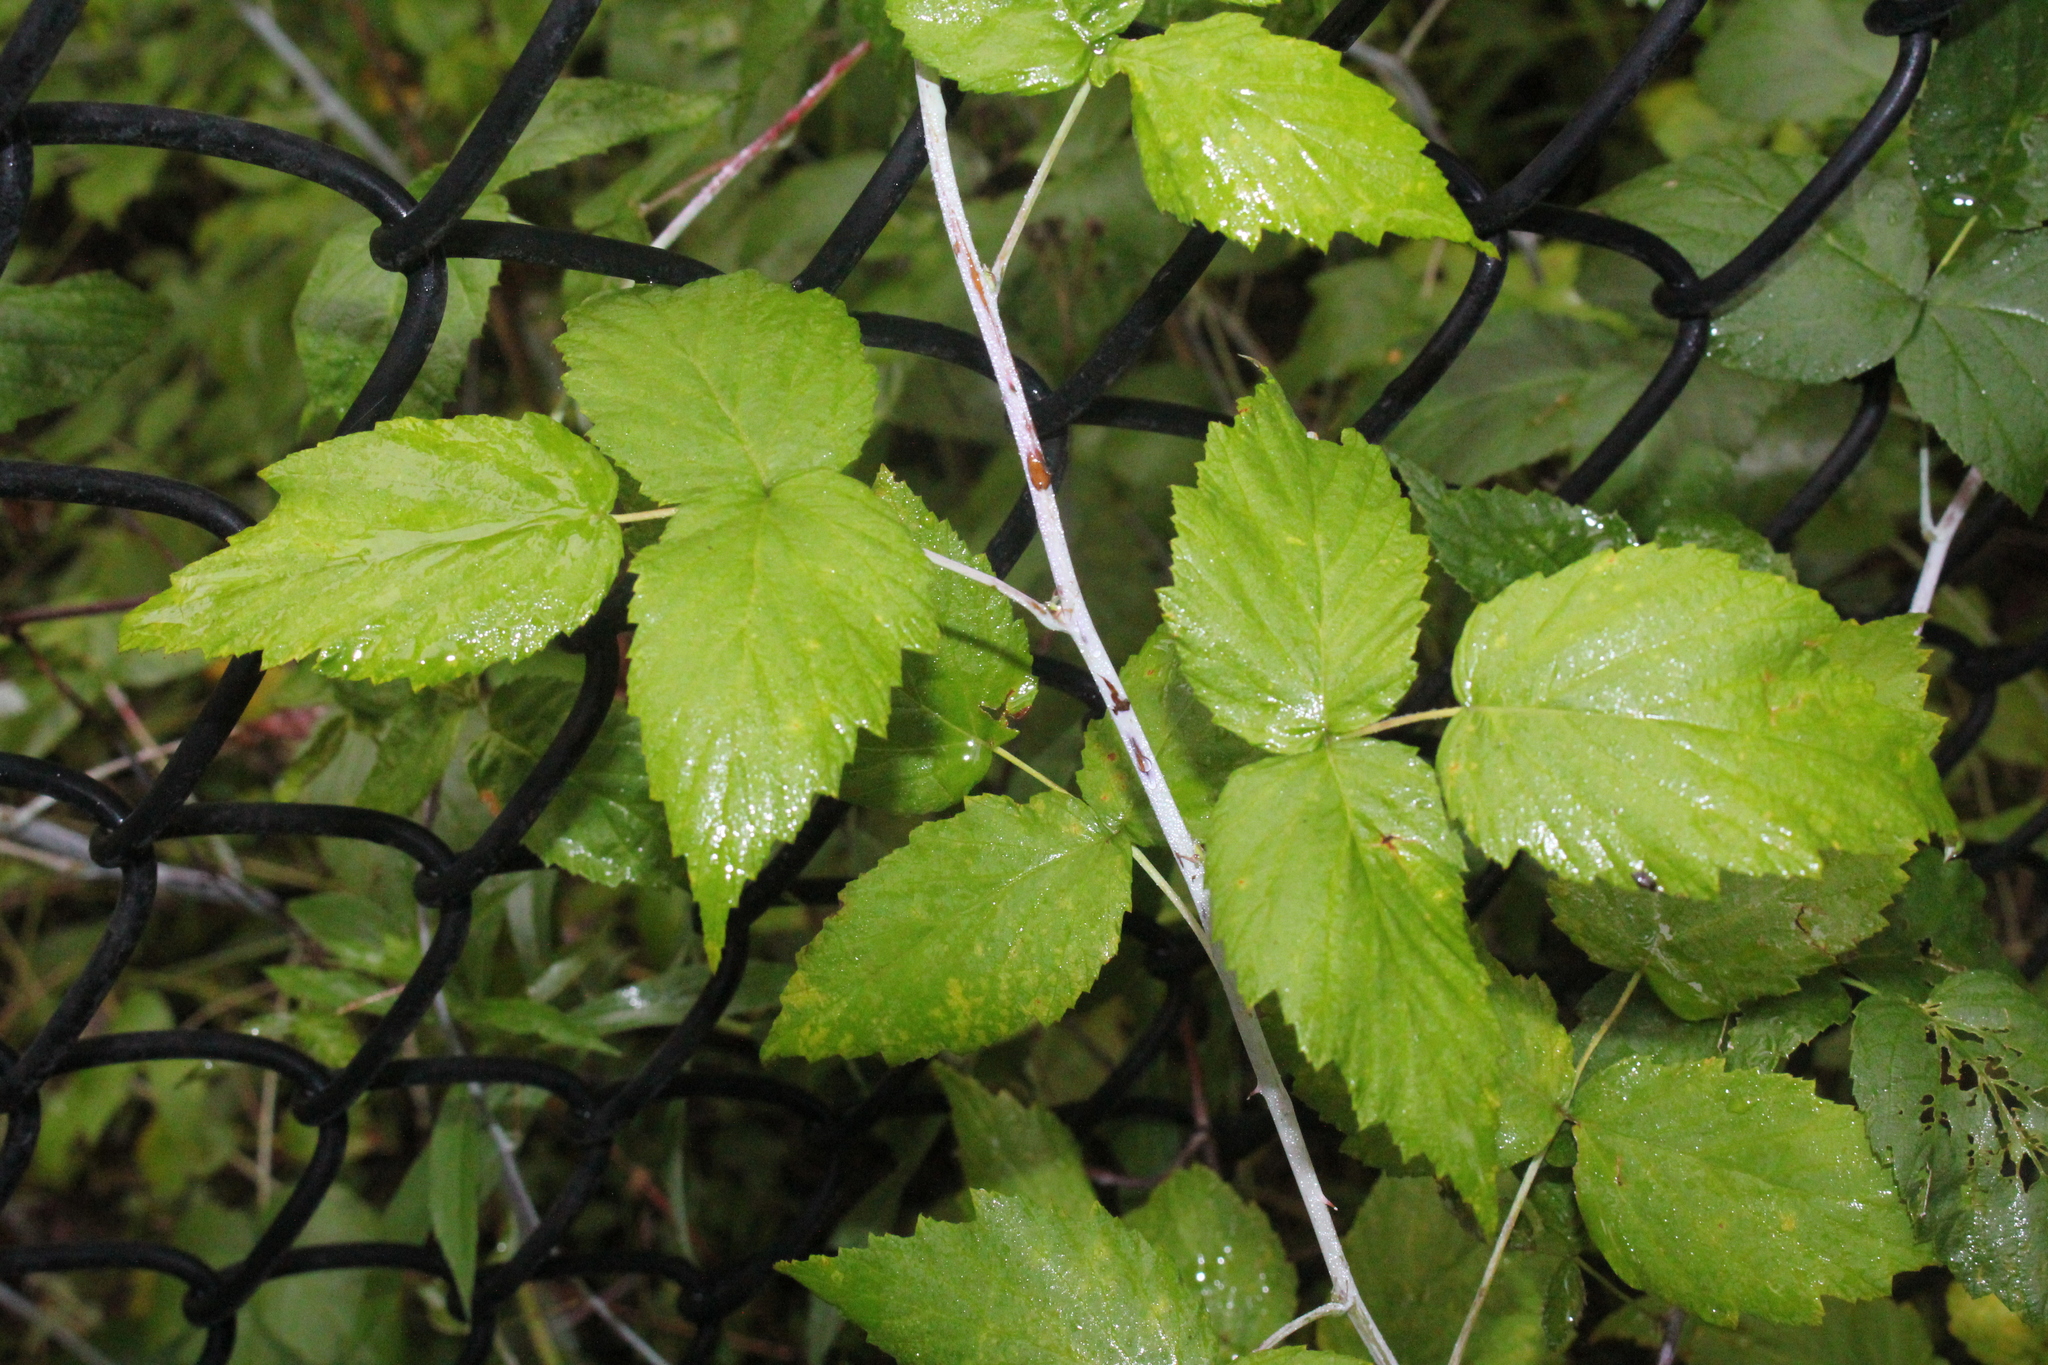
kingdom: Plantae
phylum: Tracheophyta
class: Magnoliopsida
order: Rosales
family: Rosaceae
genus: Rubus
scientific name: Rubus occidentalis
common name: Black raspberry
